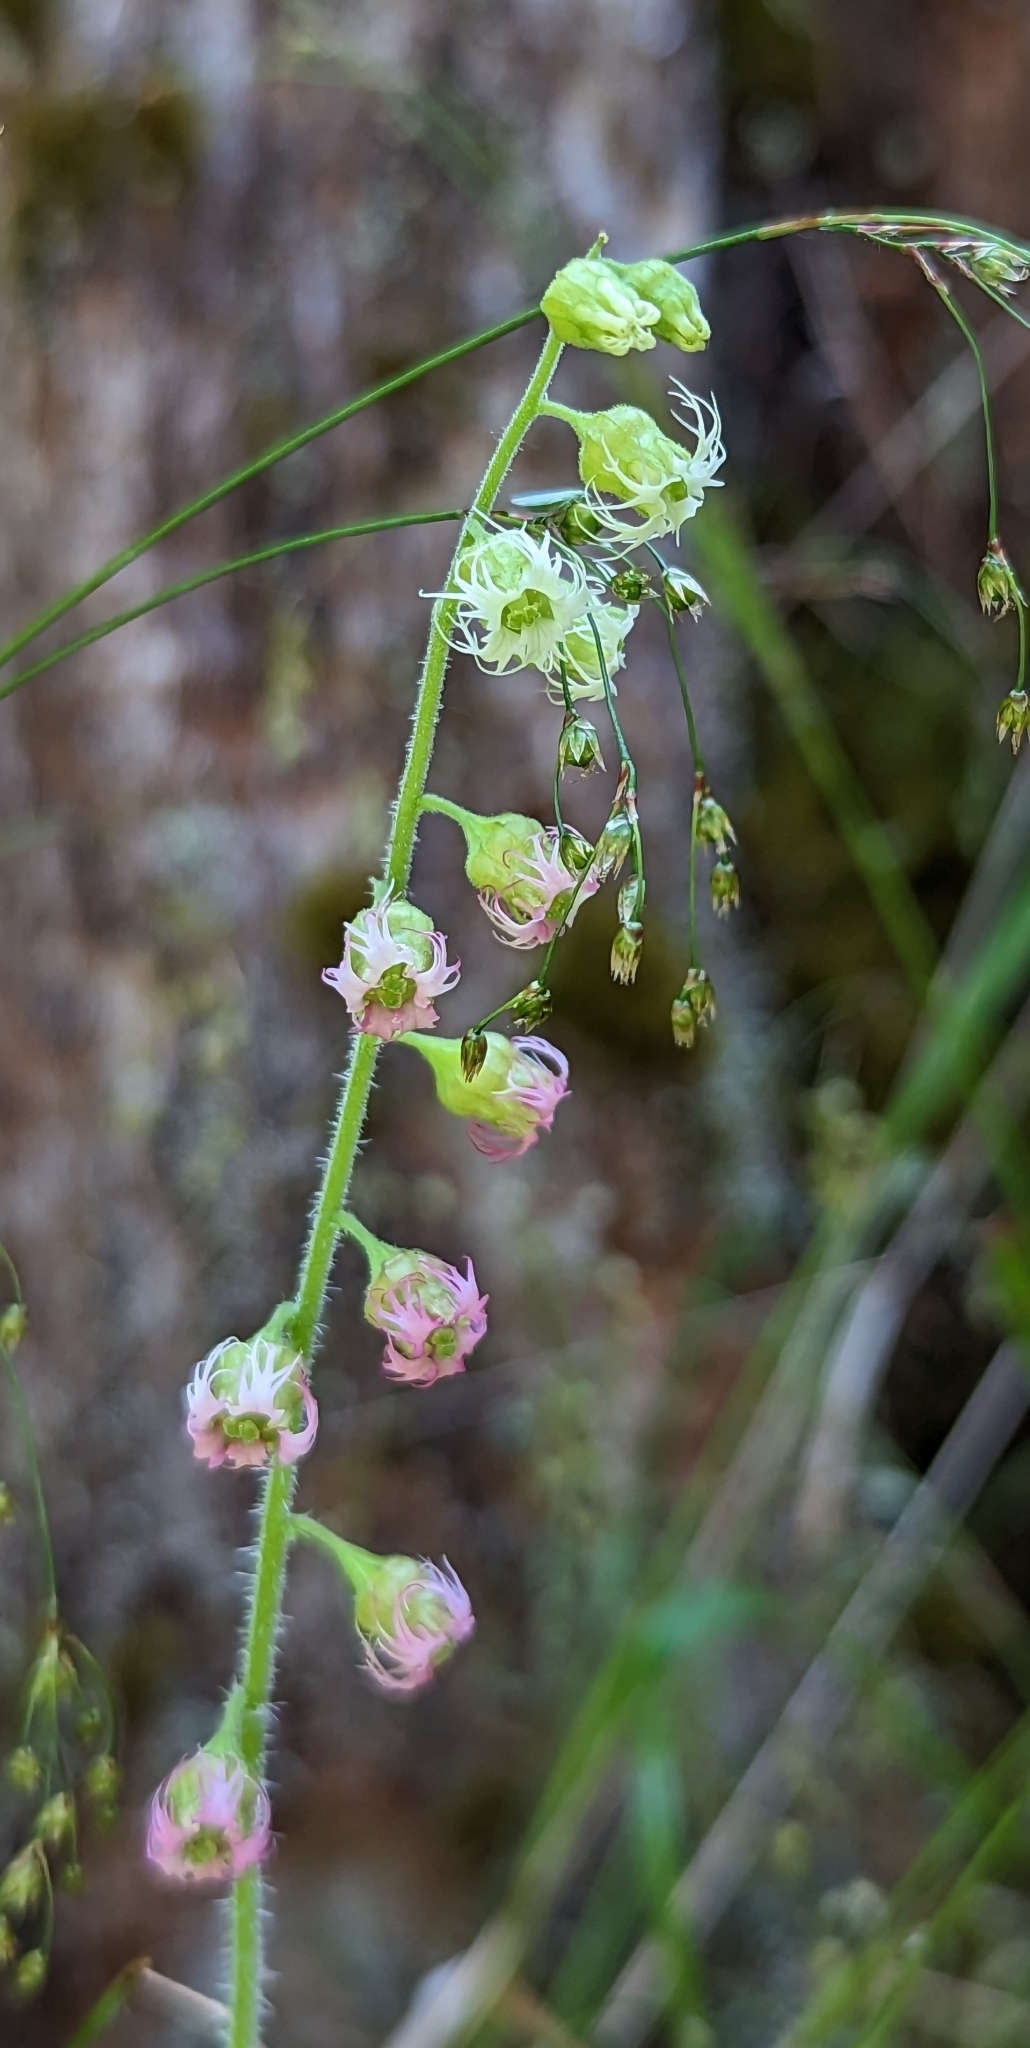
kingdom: Plantae
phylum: Tracheophyta
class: Magnoliopsida
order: Saxifragales
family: Saxifragaceae
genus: Tellima
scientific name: Tellima grandiflora
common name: Fringecups
